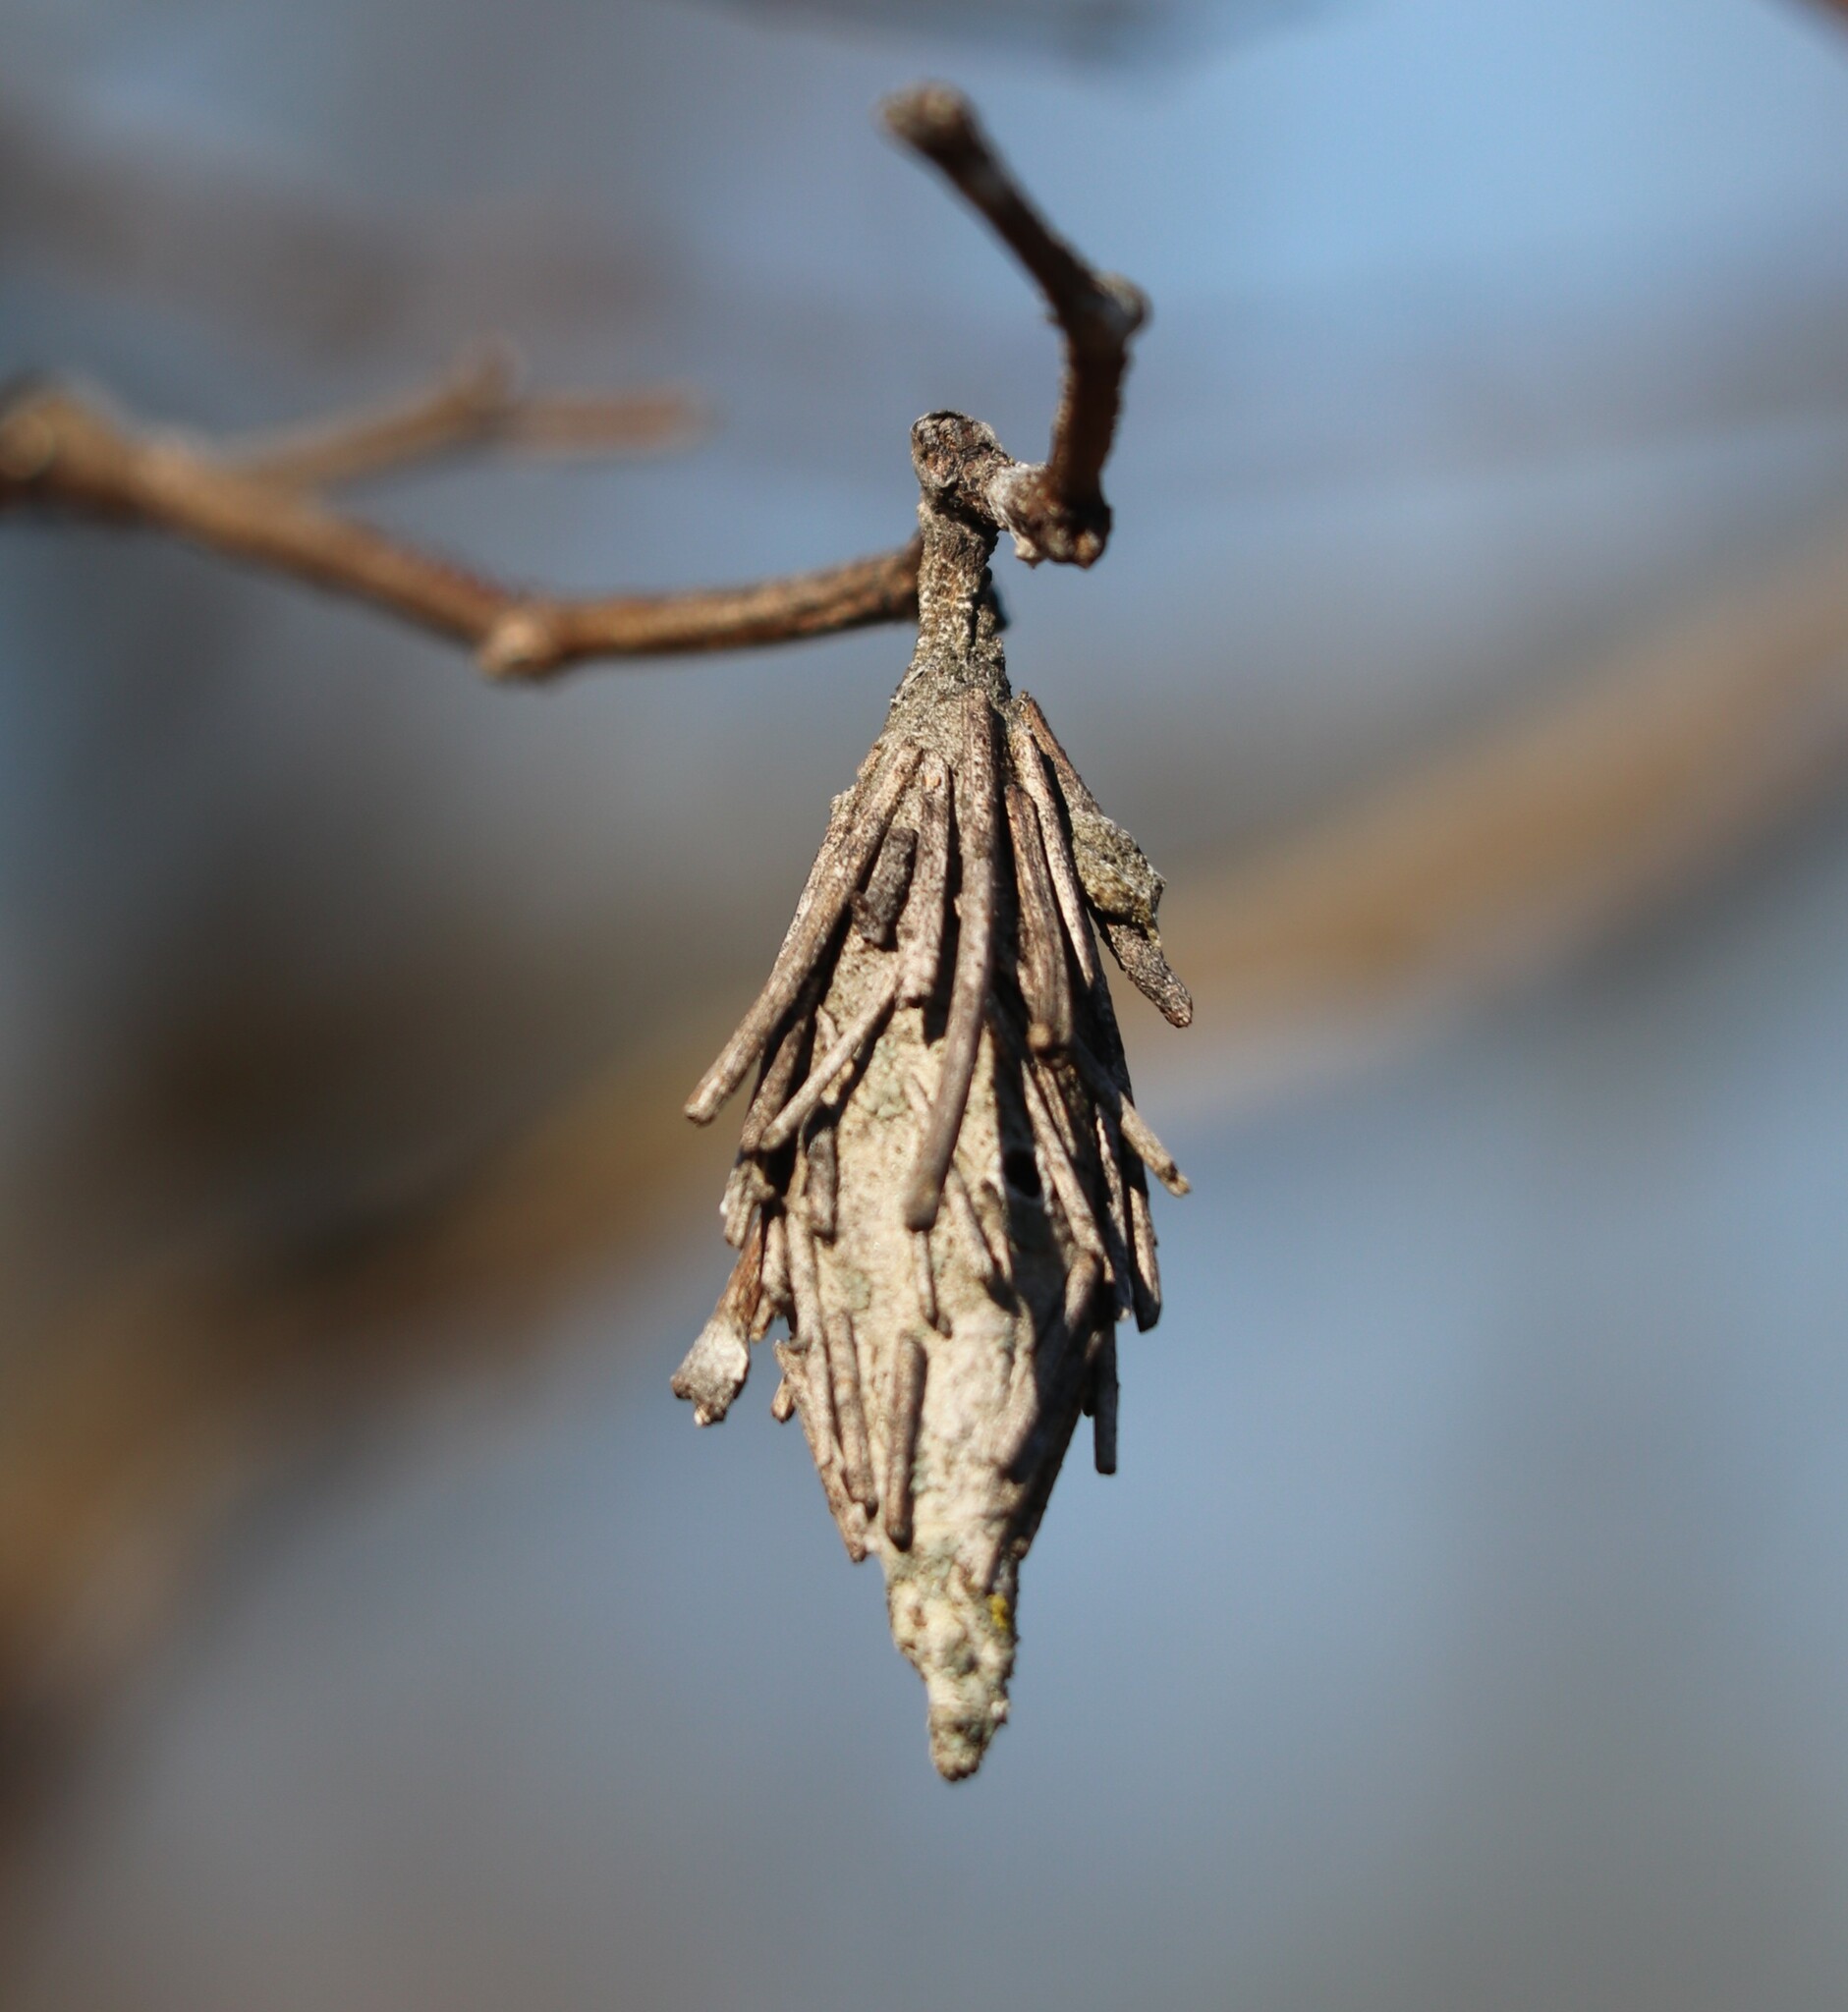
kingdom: Animalia
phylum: Arthropoda
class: Insecta
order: Lepidoptera
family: Psychidae
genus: Thyridopteryx
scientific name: Thyridopteryx ephemeraeformis
